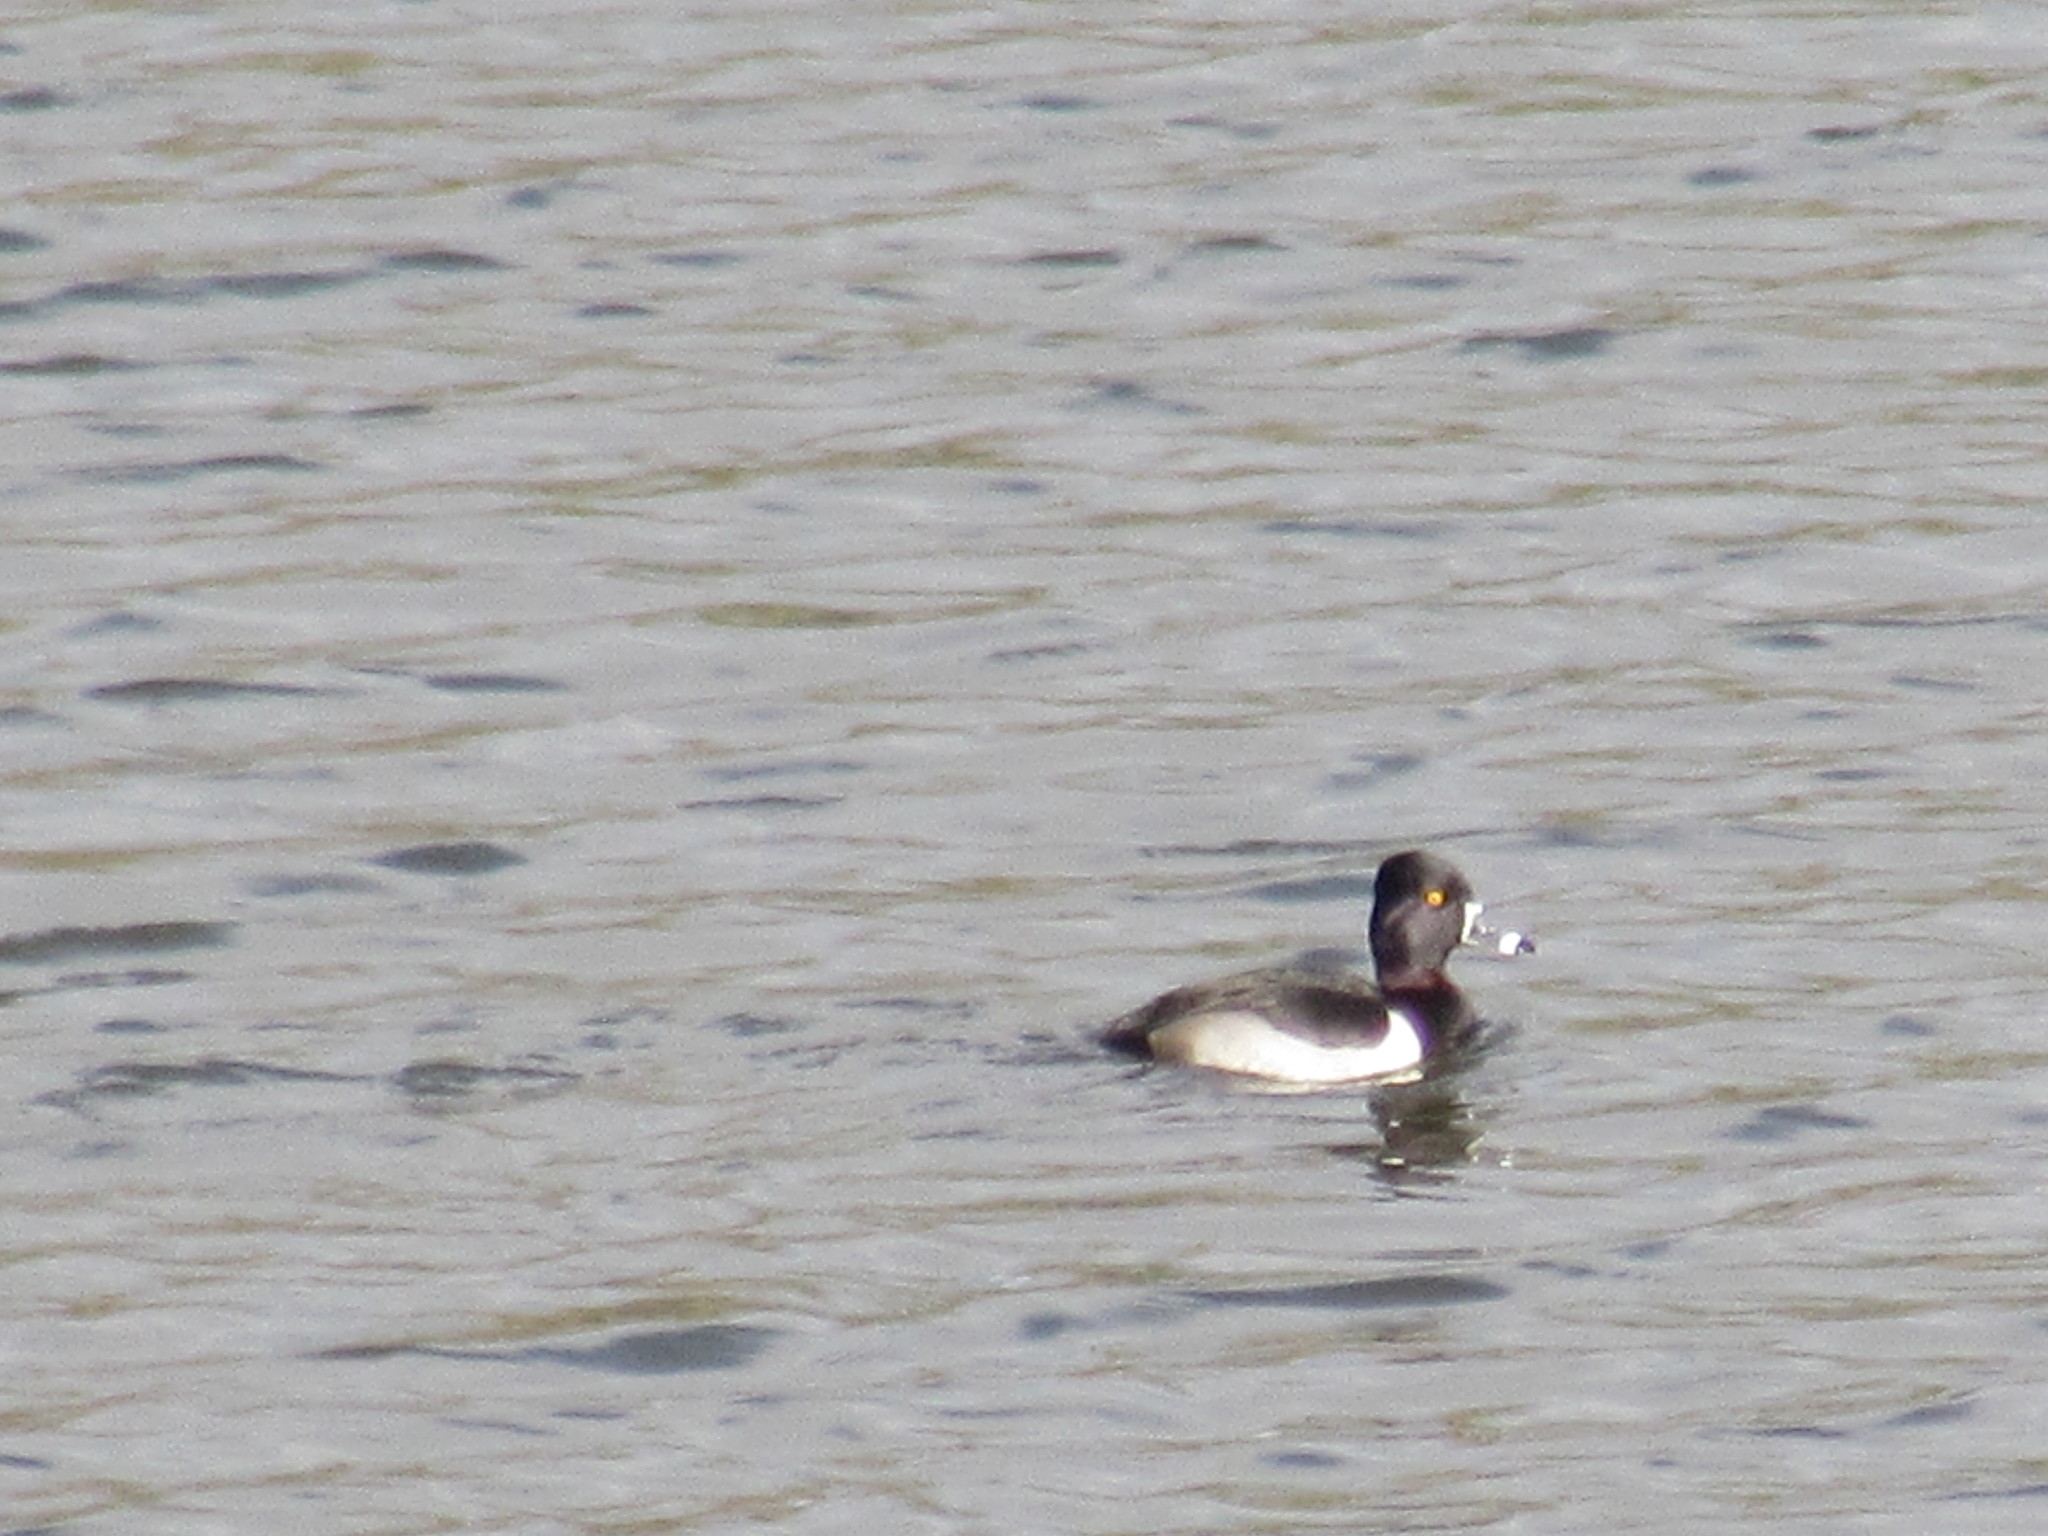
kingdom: Animalia
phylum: Chordata
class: Aves
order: Anseriformes
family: Anatidae
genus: Aythya
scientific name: Aythya collaris
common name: Ring-necked duck
